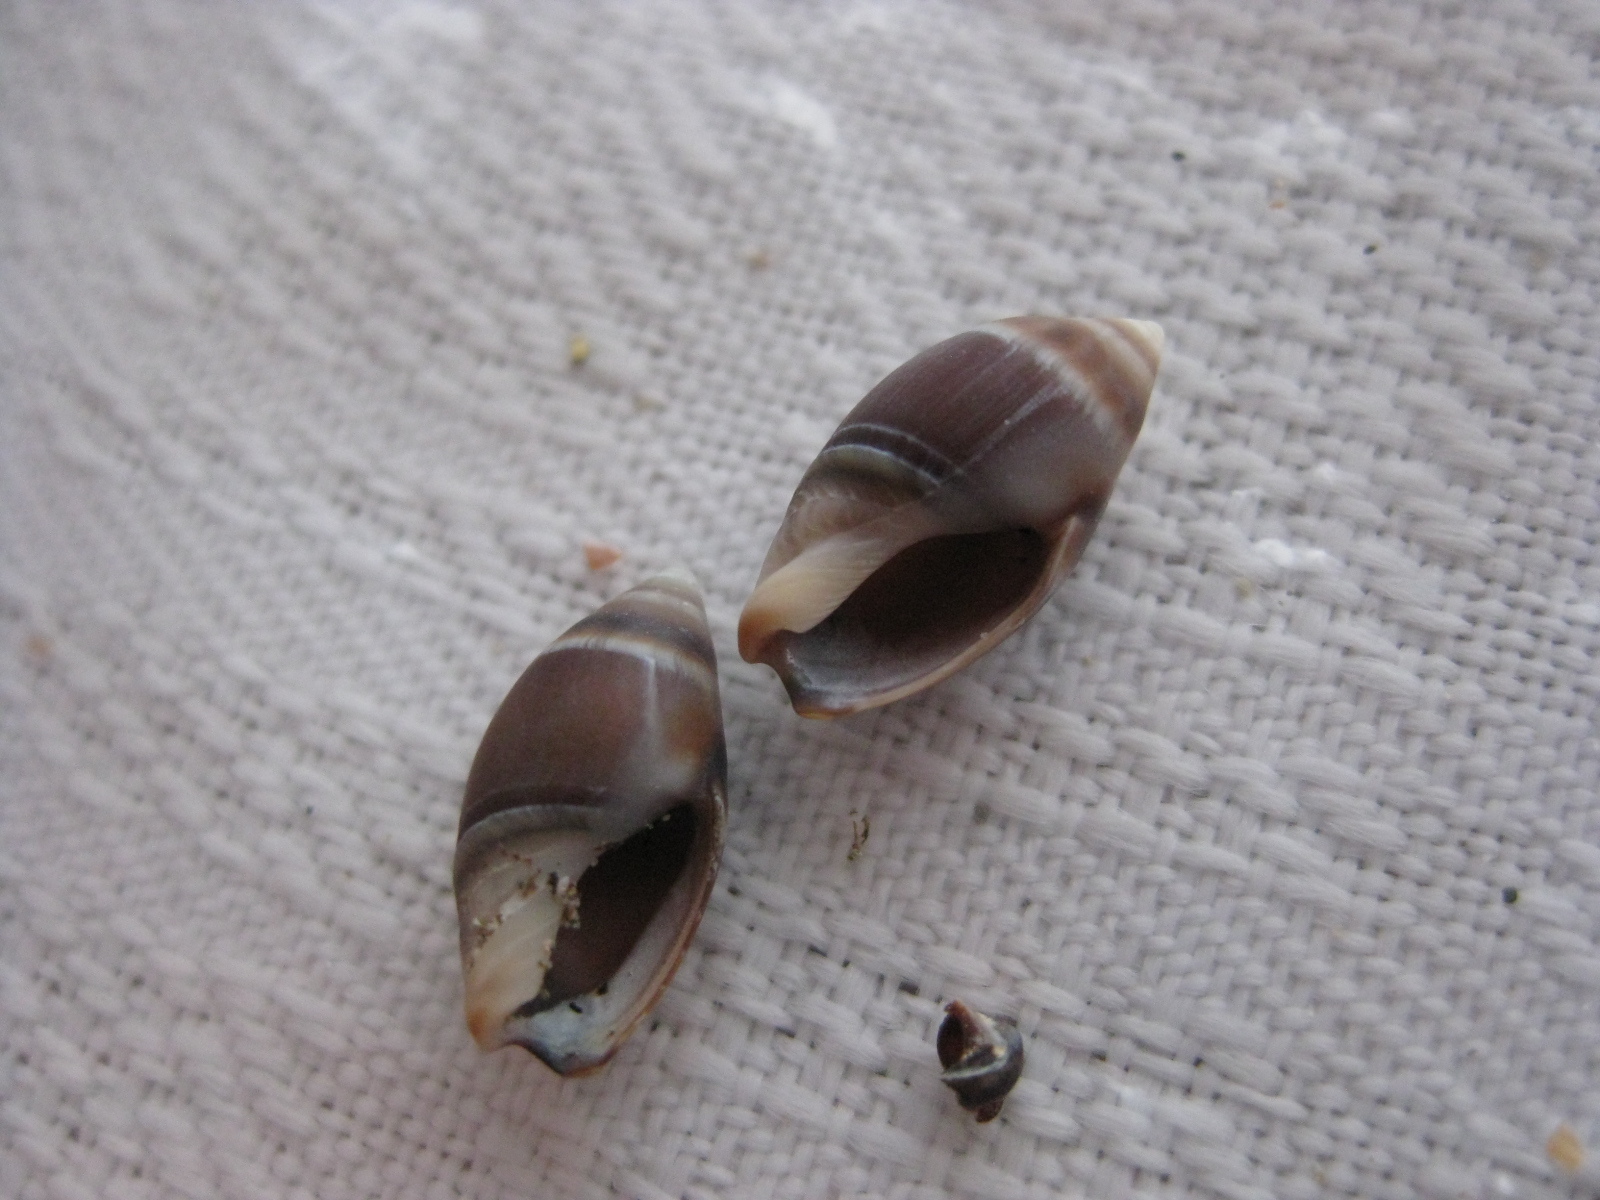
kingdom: Animalia
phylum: Mollusca
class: Gastropoda
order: Neogastropoda
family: Ancillariidae
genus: Amalda
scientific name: Amalda australis
